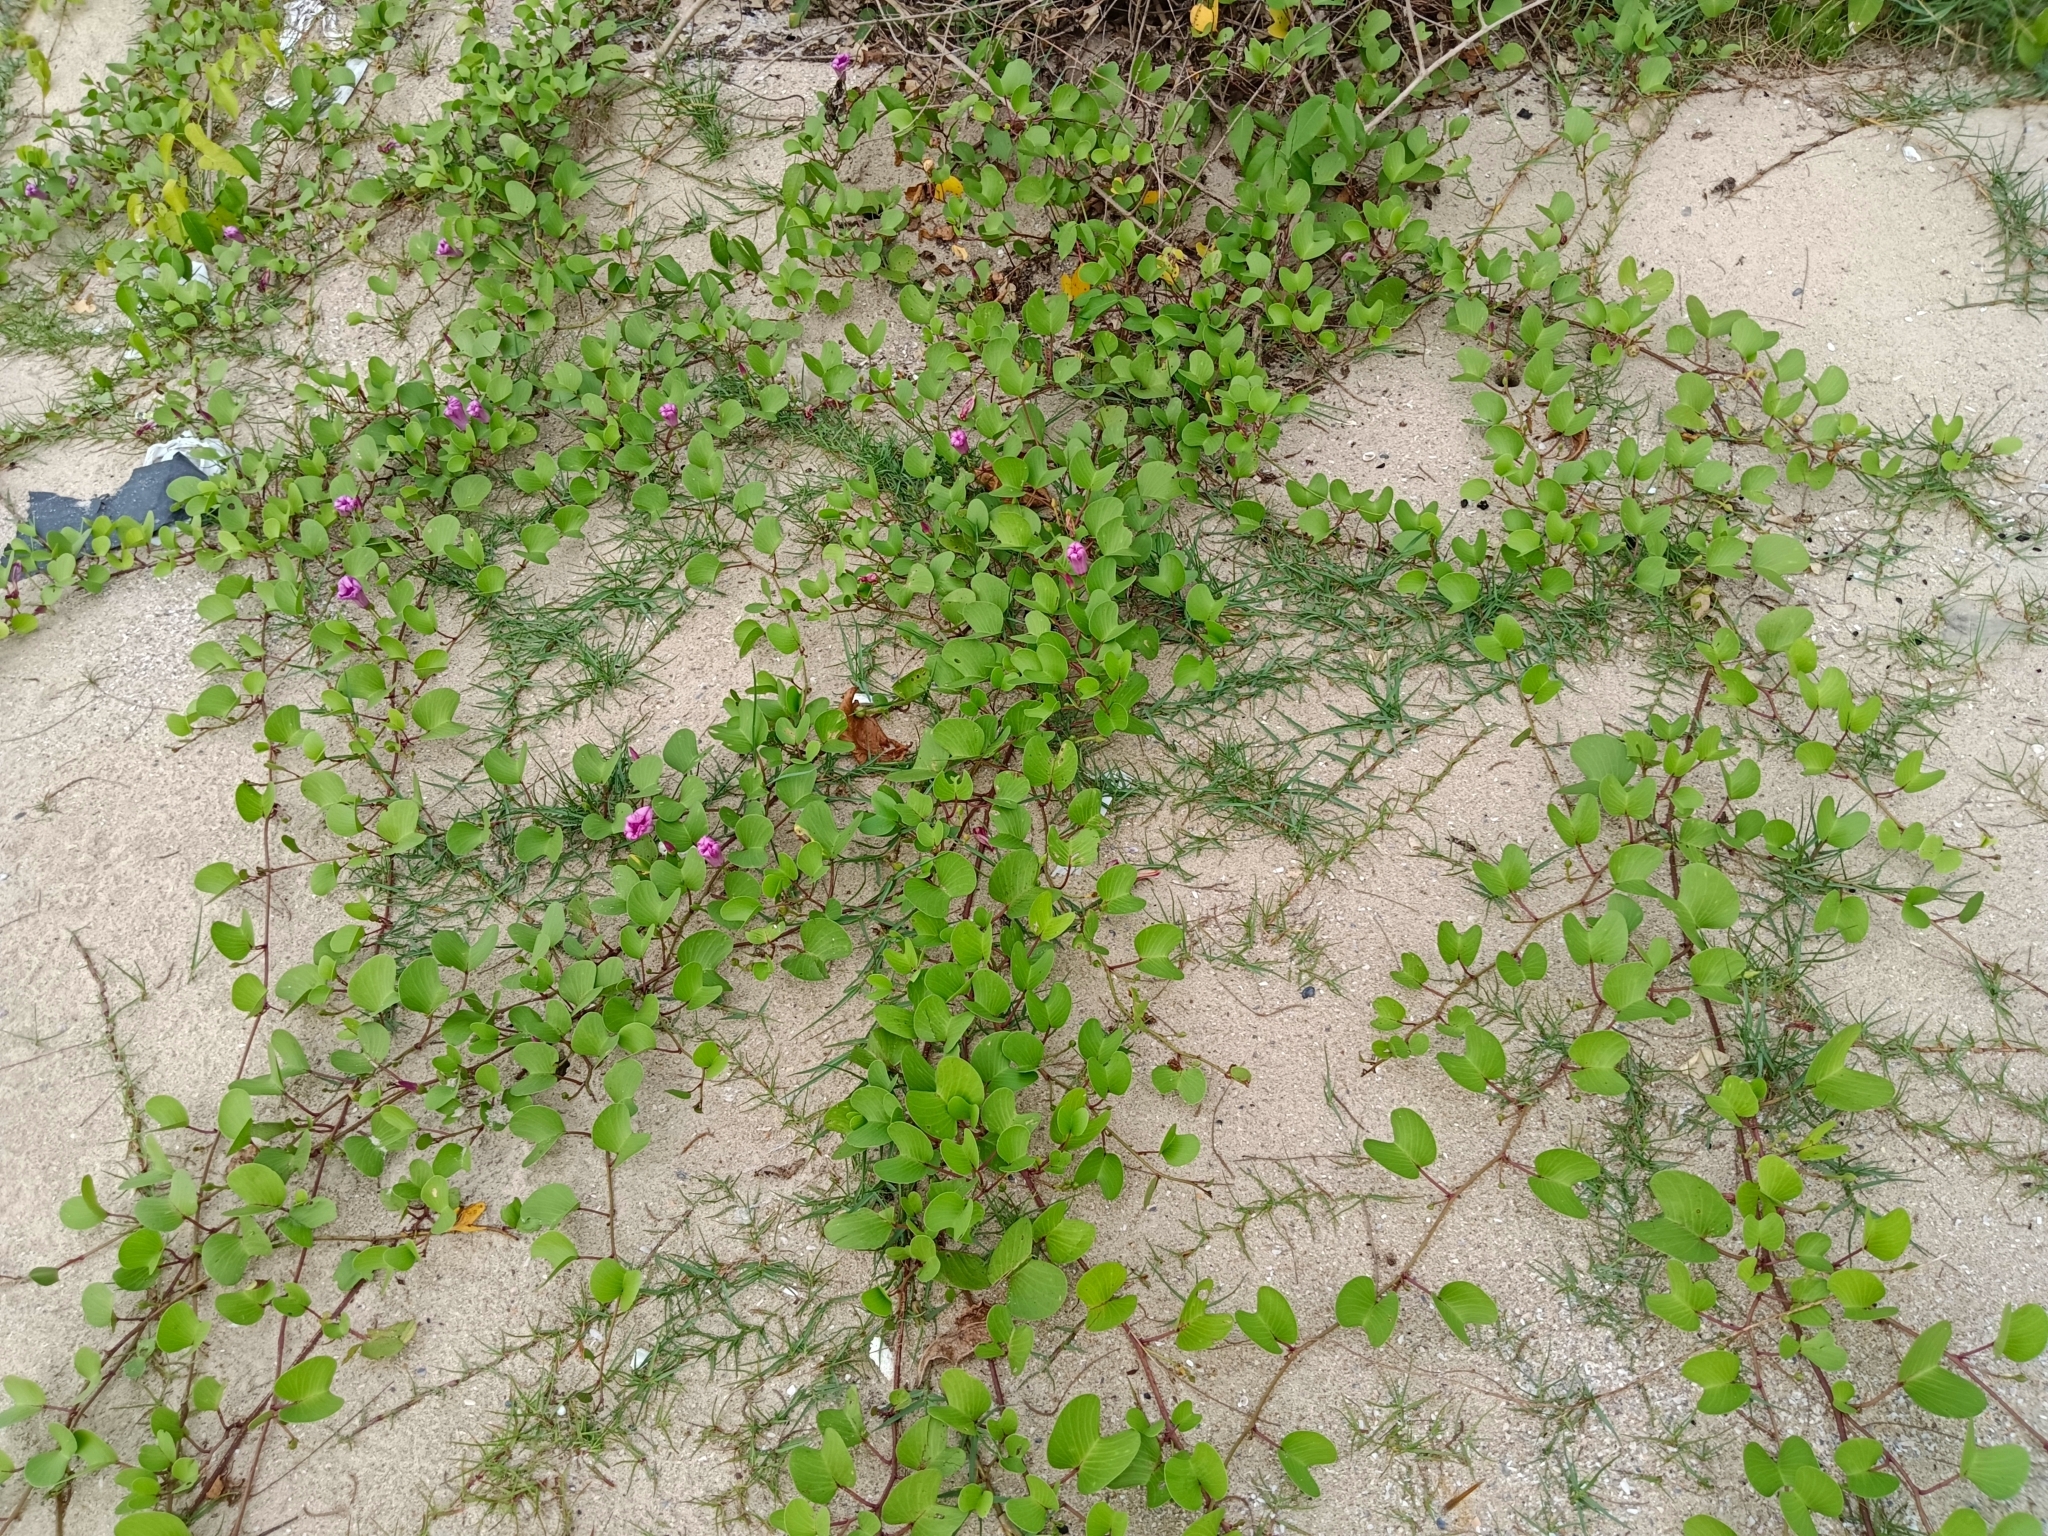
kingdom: Plantae
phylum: Tracheophyta
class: Magnoliopsida
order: Solanales
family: Convolvulaceae
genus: Ipomoea
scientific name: Ipomoea pes-caprae
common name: Beach morning glory
